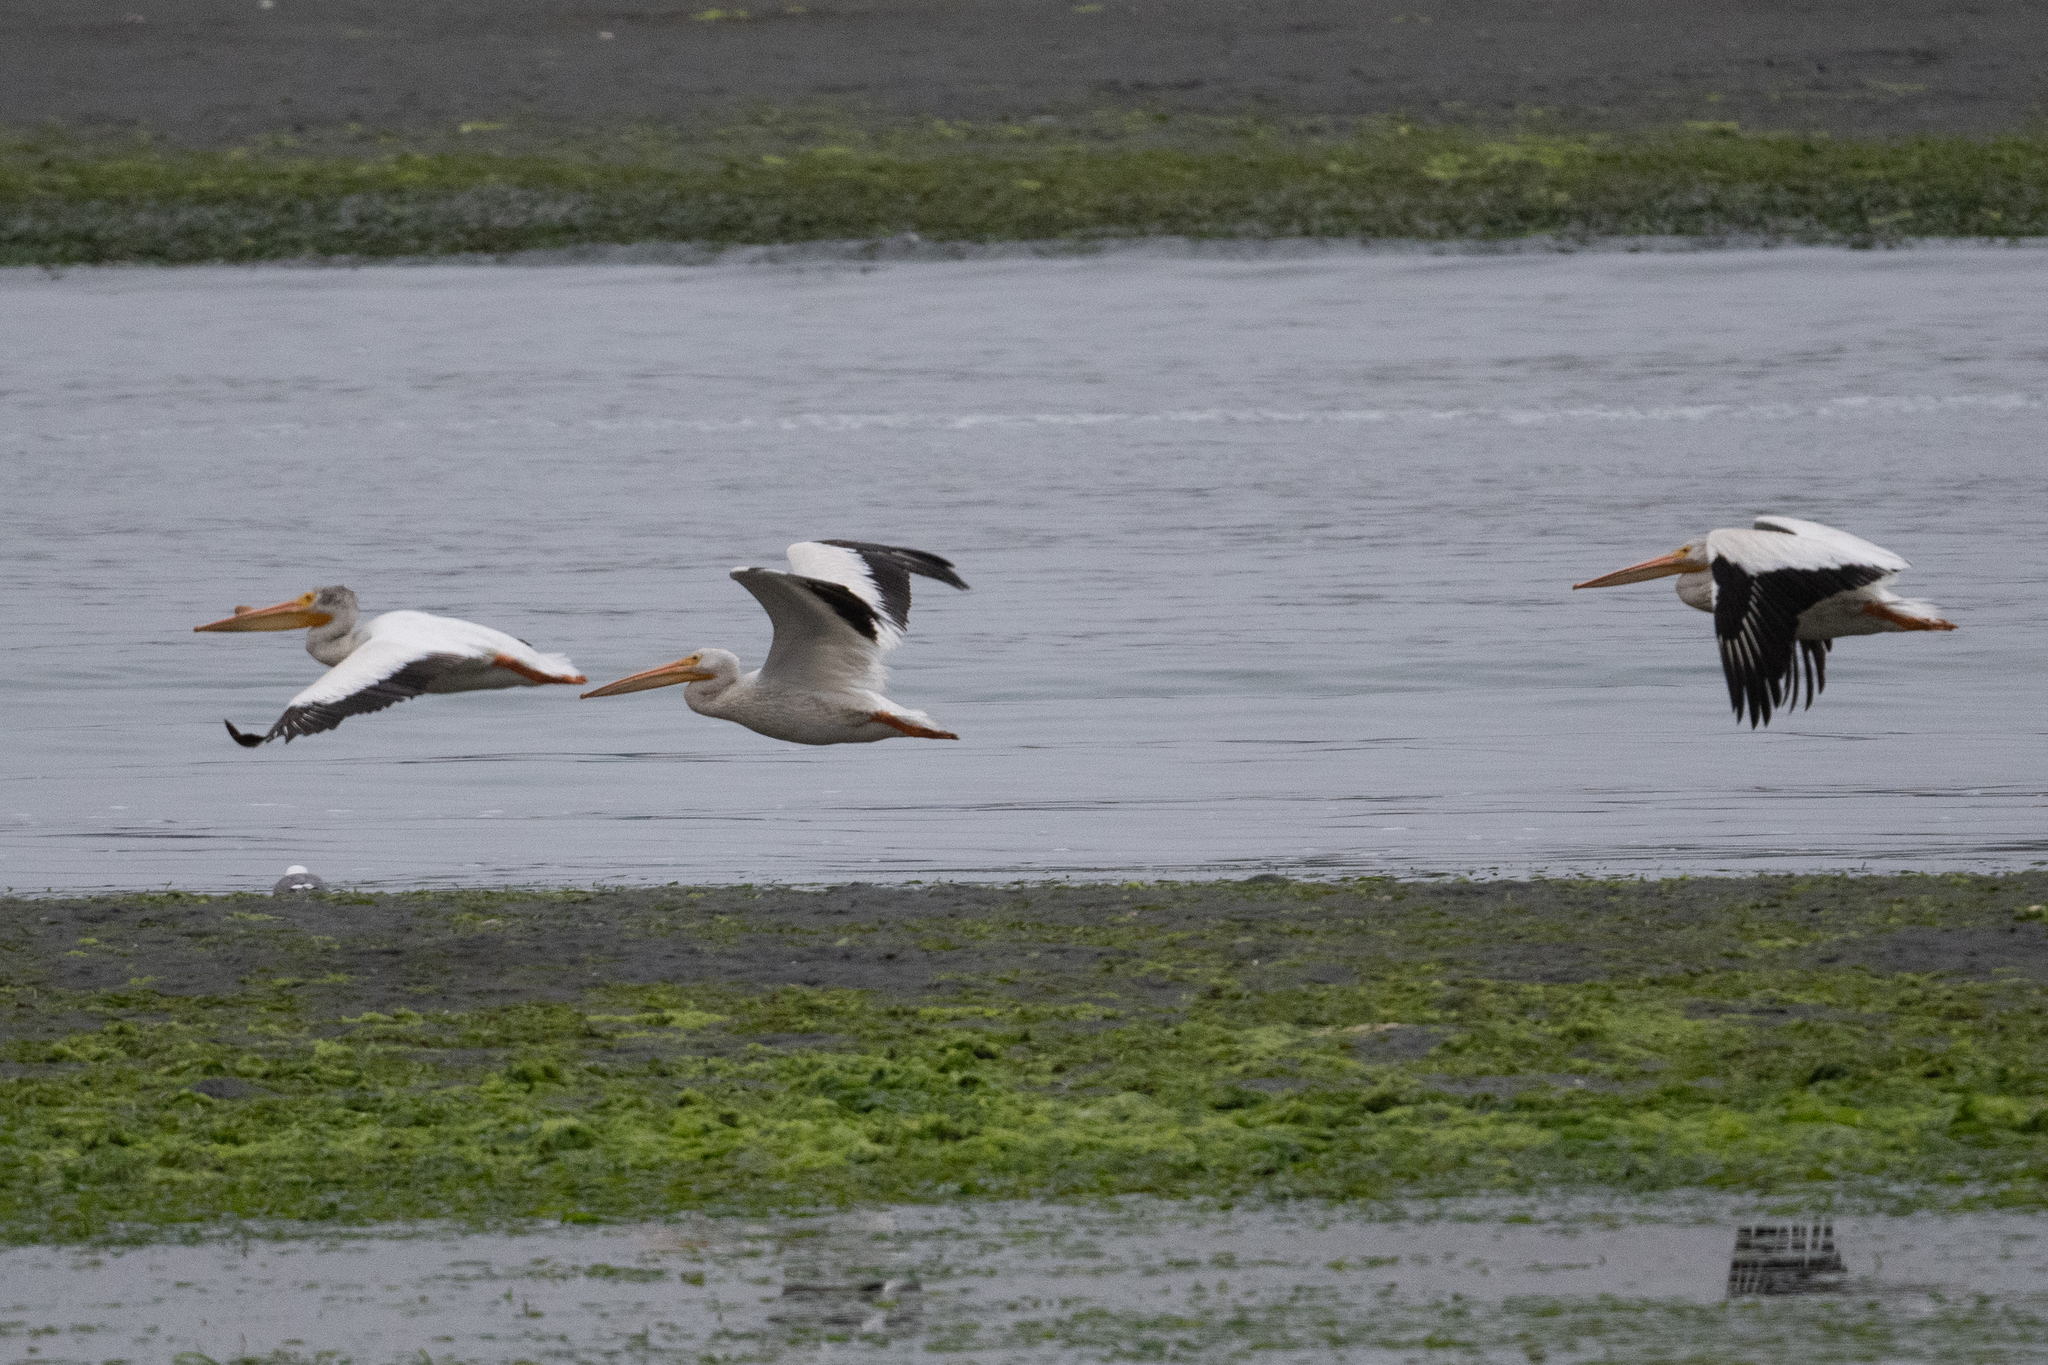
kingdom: Animalia
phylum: Chordata
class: Aves
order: Pelecaniformes
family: Pelecanidae
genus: Pelecanus
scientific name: Pelecanus erythrorhynchos
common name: American white pelican
